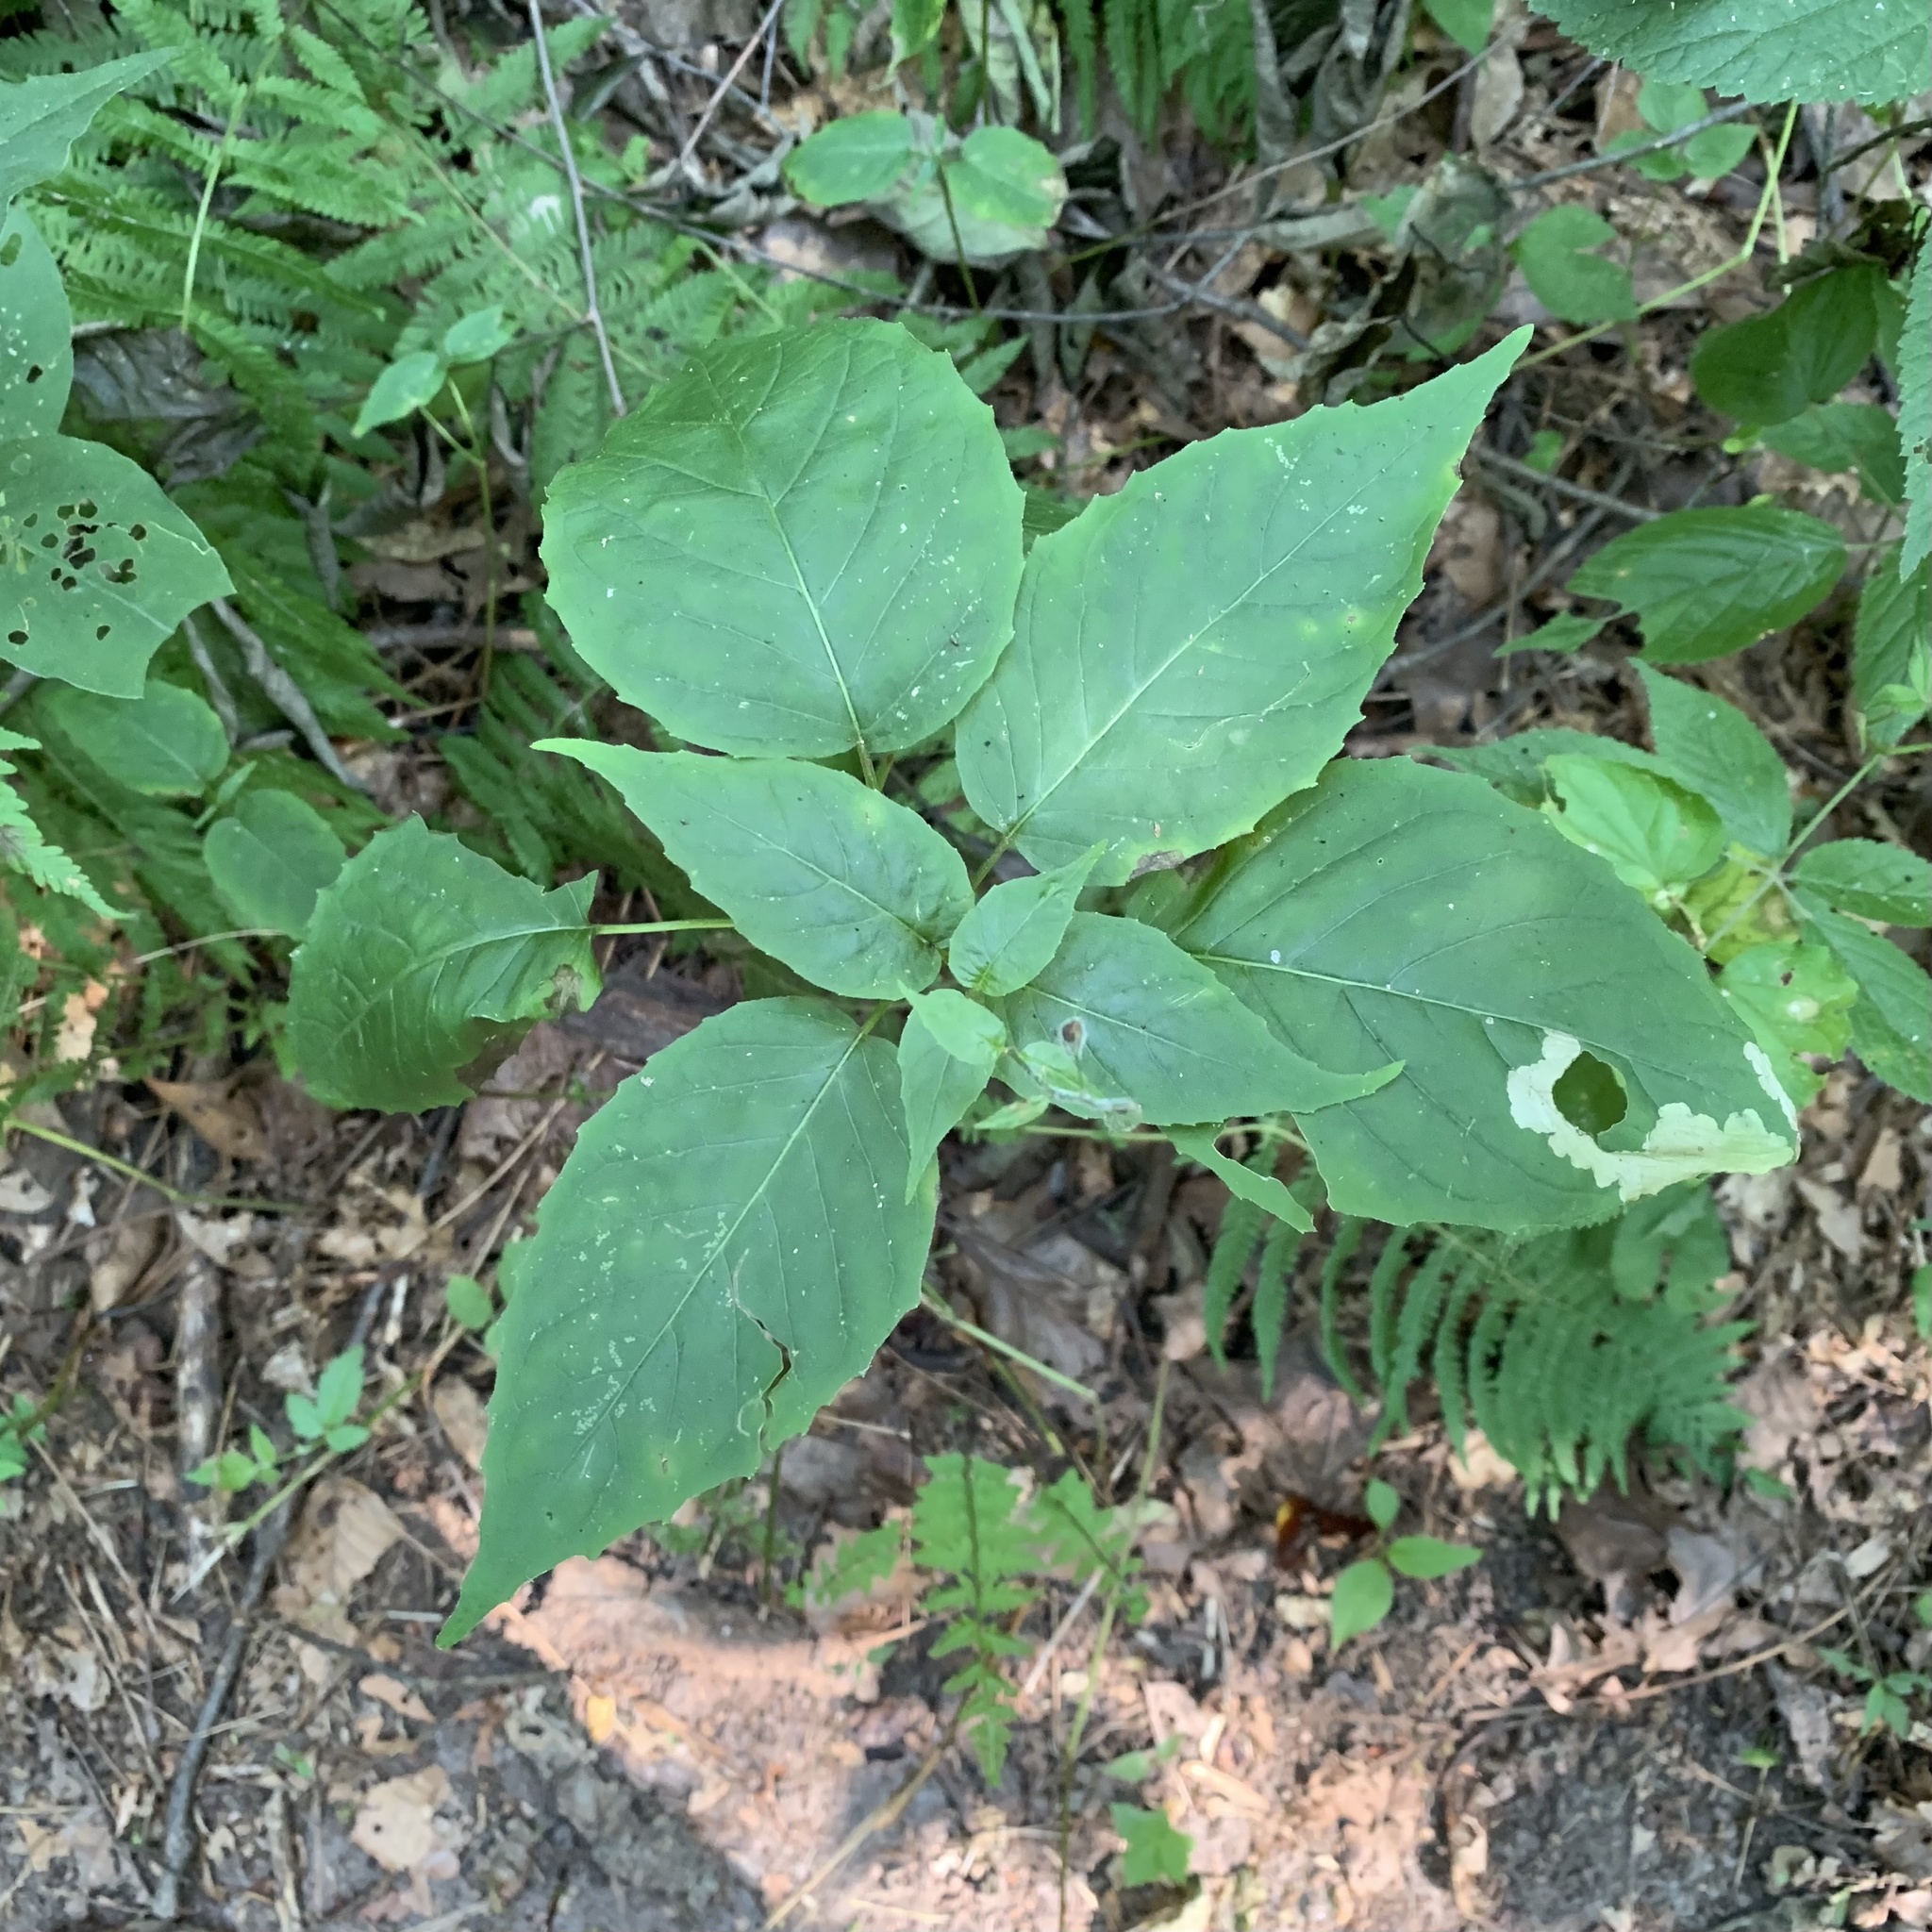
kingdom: Plantae
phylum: Tracheophyta
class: Magnoliopsida
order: Myrtales
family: Onagraceae
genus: Circaea
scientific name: Circaea canadensis
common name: Broad-leaved enchanter's nightshade
